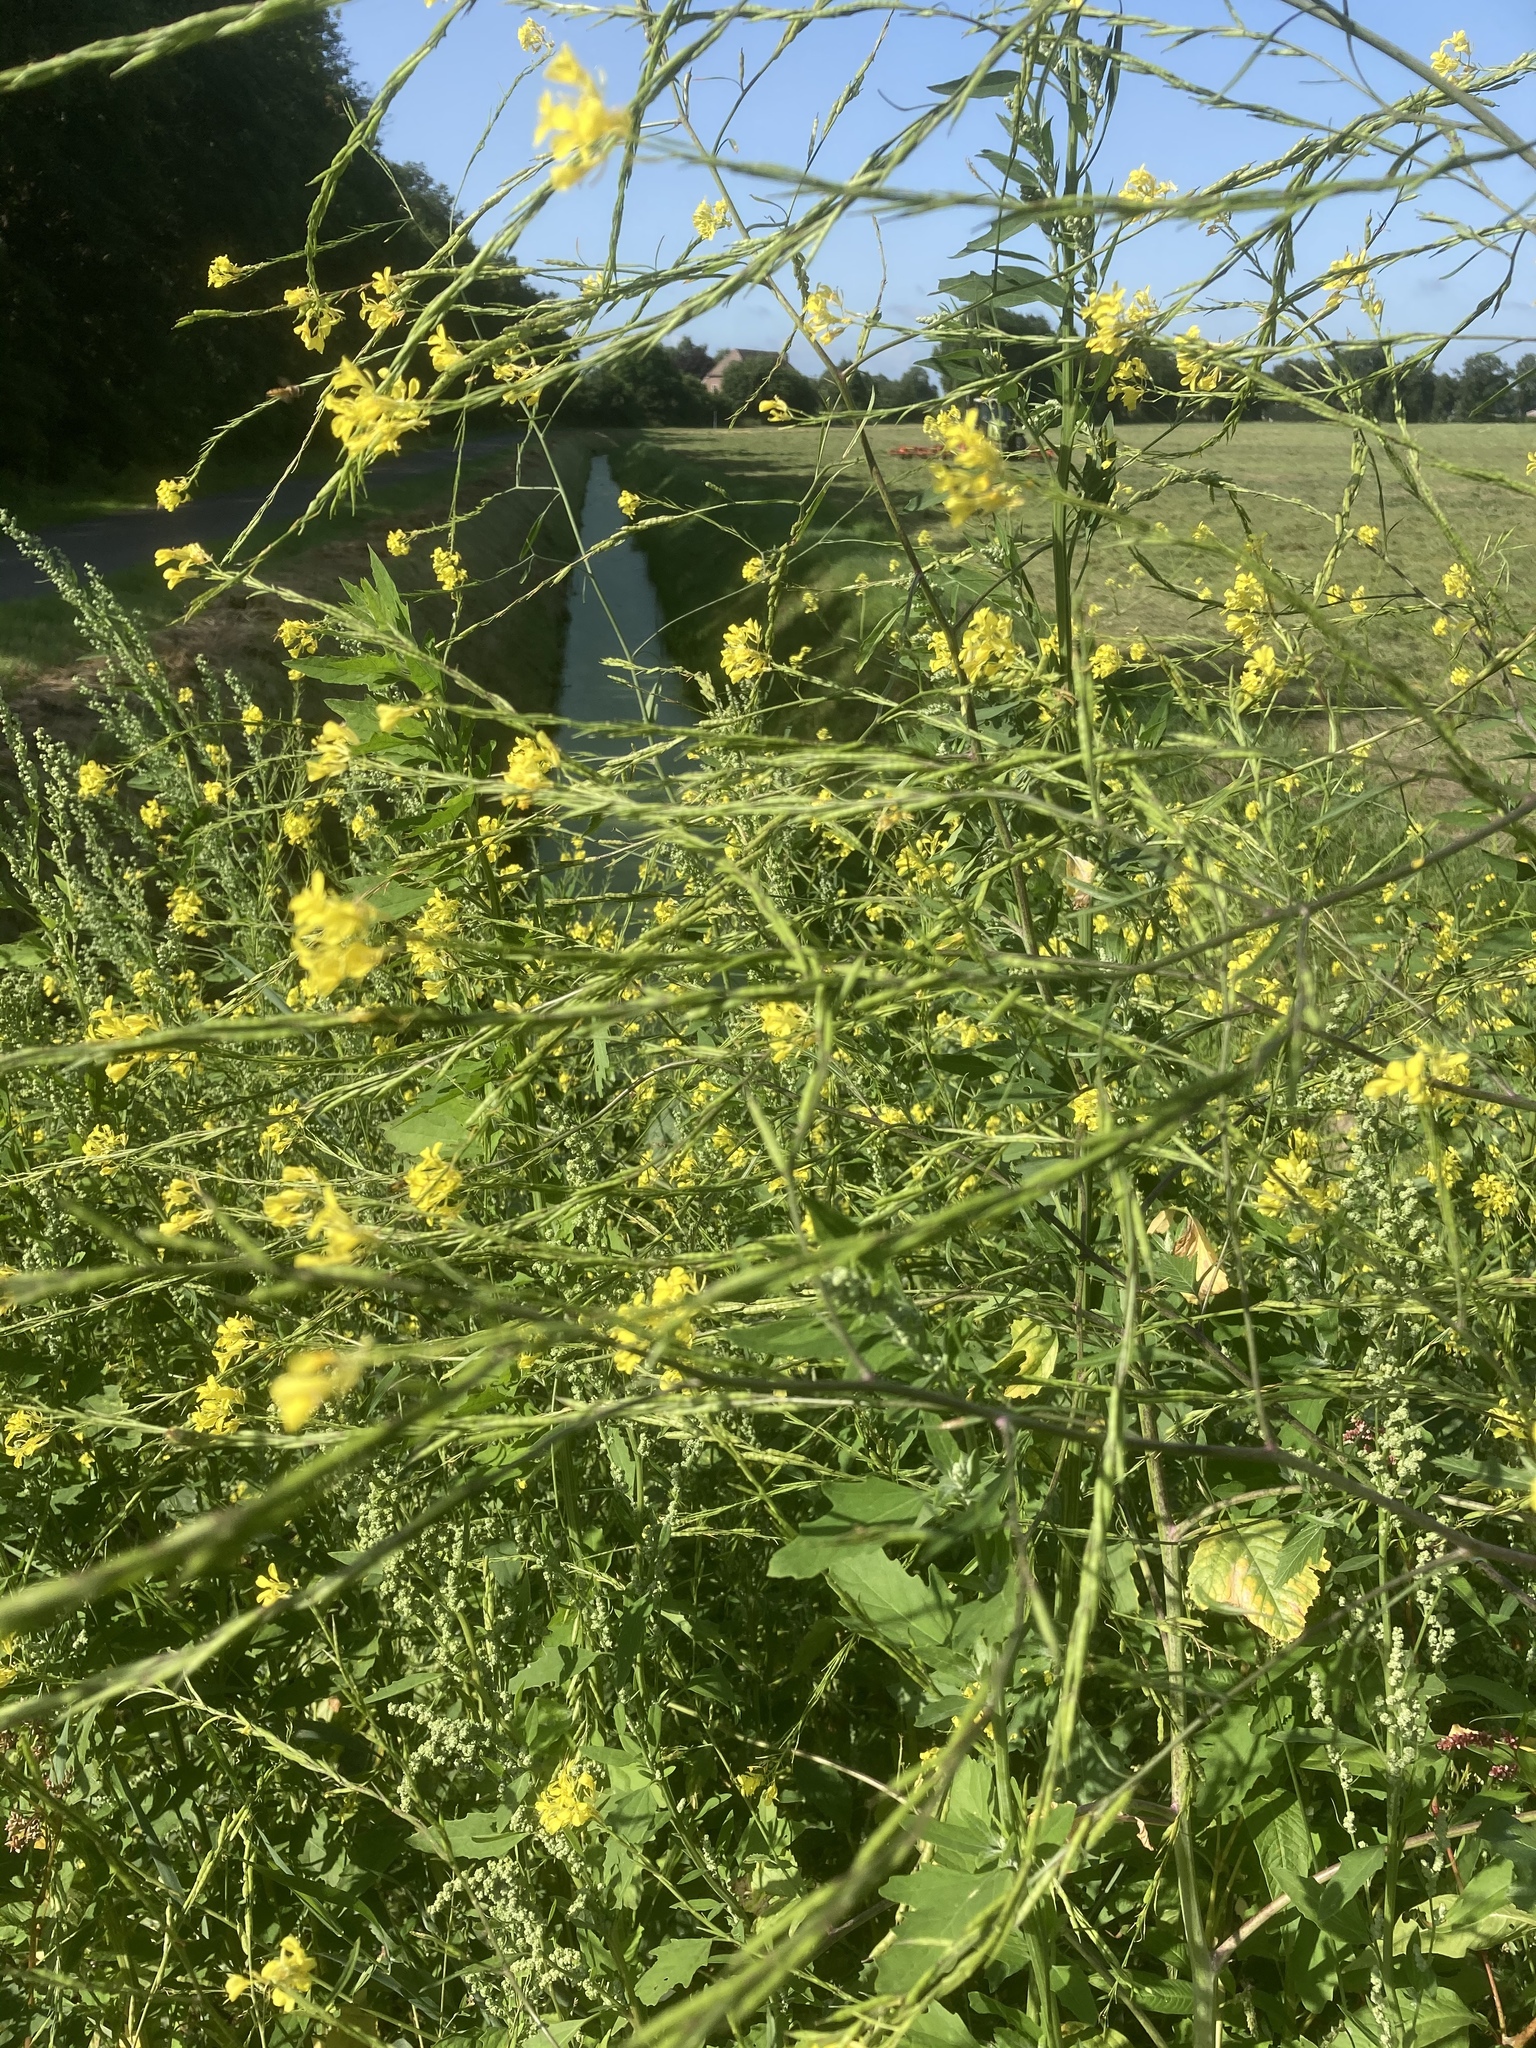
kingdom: Plantae
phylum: Tracheophyta
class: Magnoliopsida
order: Brassicales
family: Brassicaceae
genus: Brassica
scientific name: Brassica nigra
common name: Black mustard
